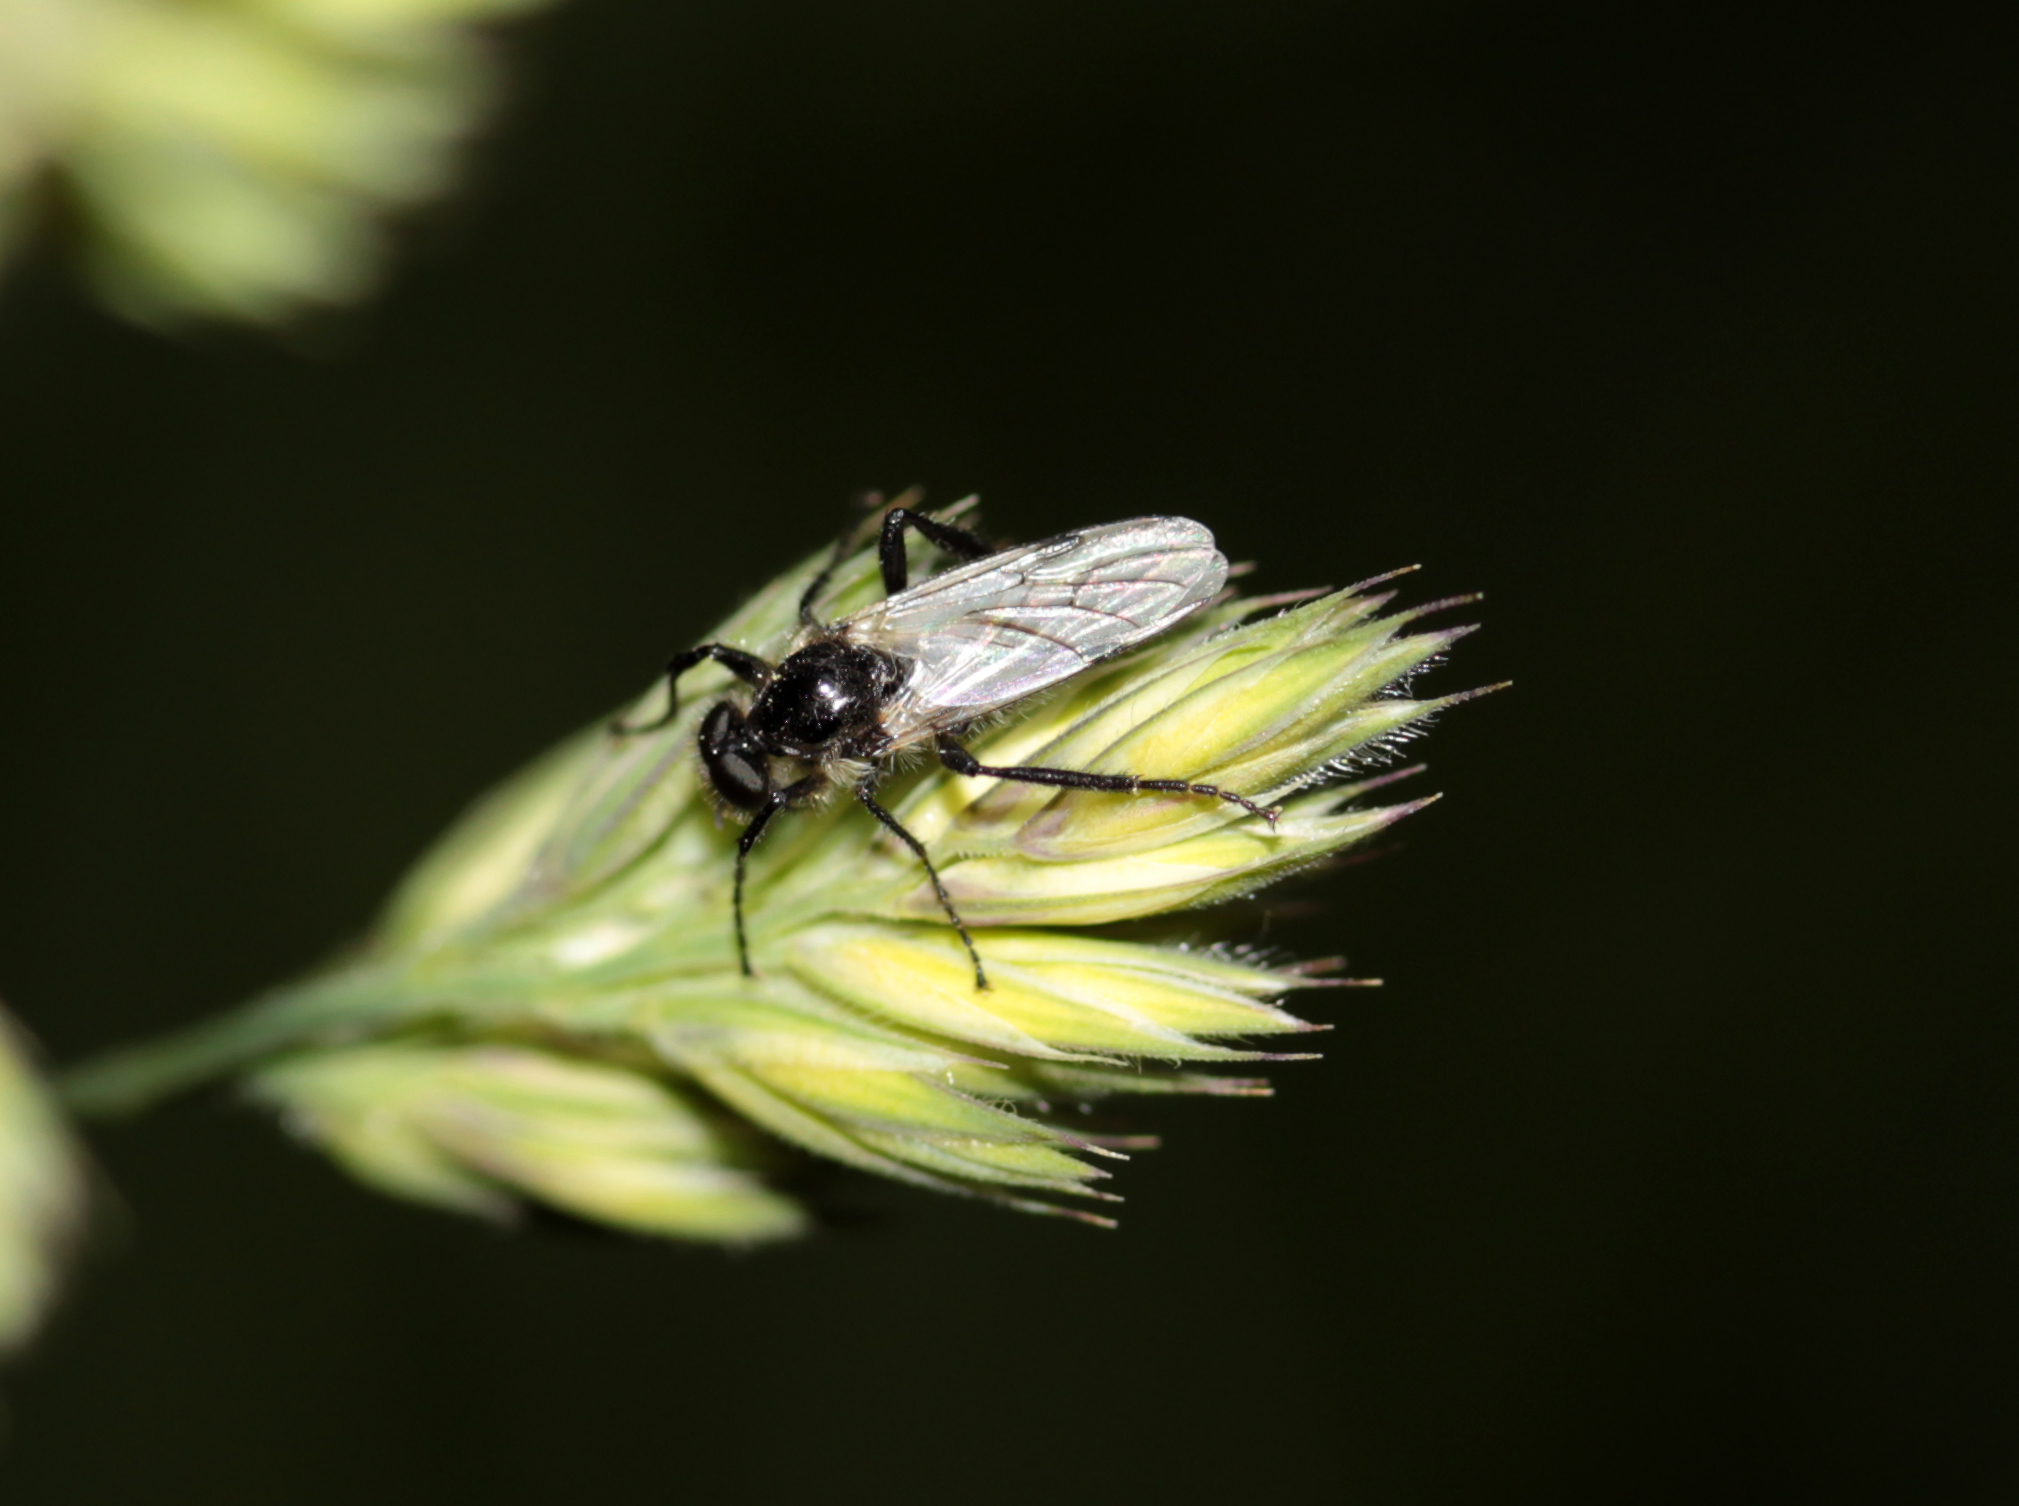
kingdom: Animalia
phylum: Arthropoda
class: Insecta
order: Diptera
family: Bibionidae
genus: Bibio
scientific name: Bibio albipennis
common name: White-winged march fly
